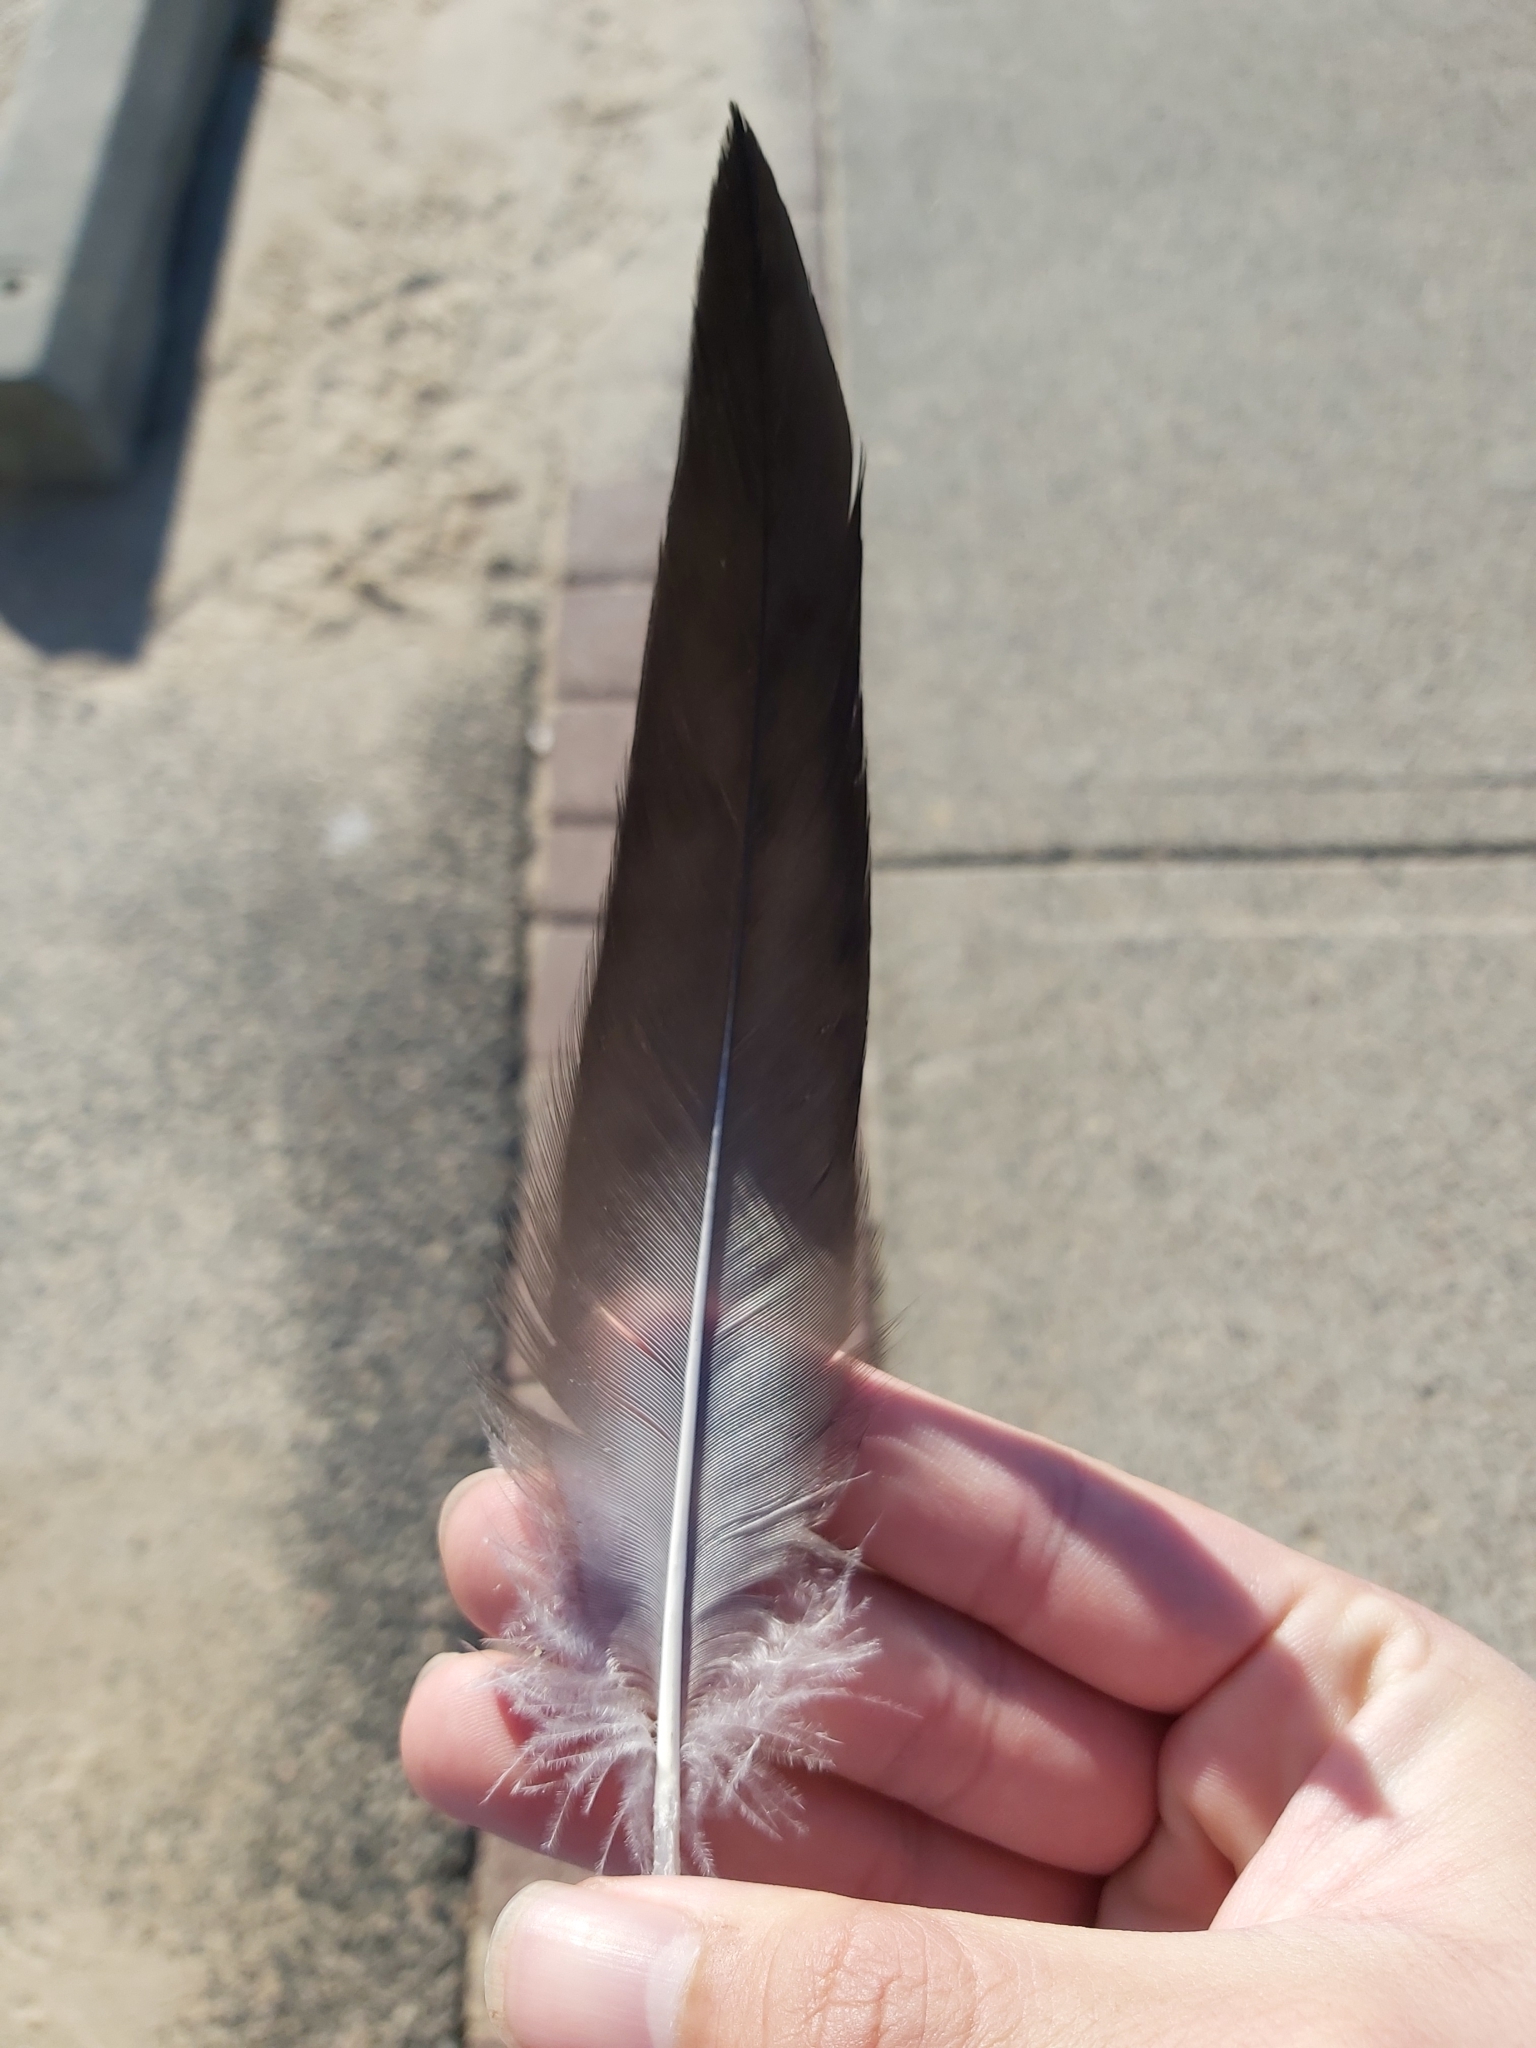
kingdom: Animalia
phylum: Chordata
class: Aves
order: Pelecaniformes
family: Pelecanidae
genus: Pelecanus
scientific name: Pelecanus conspicillatus
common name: Australian pelican
